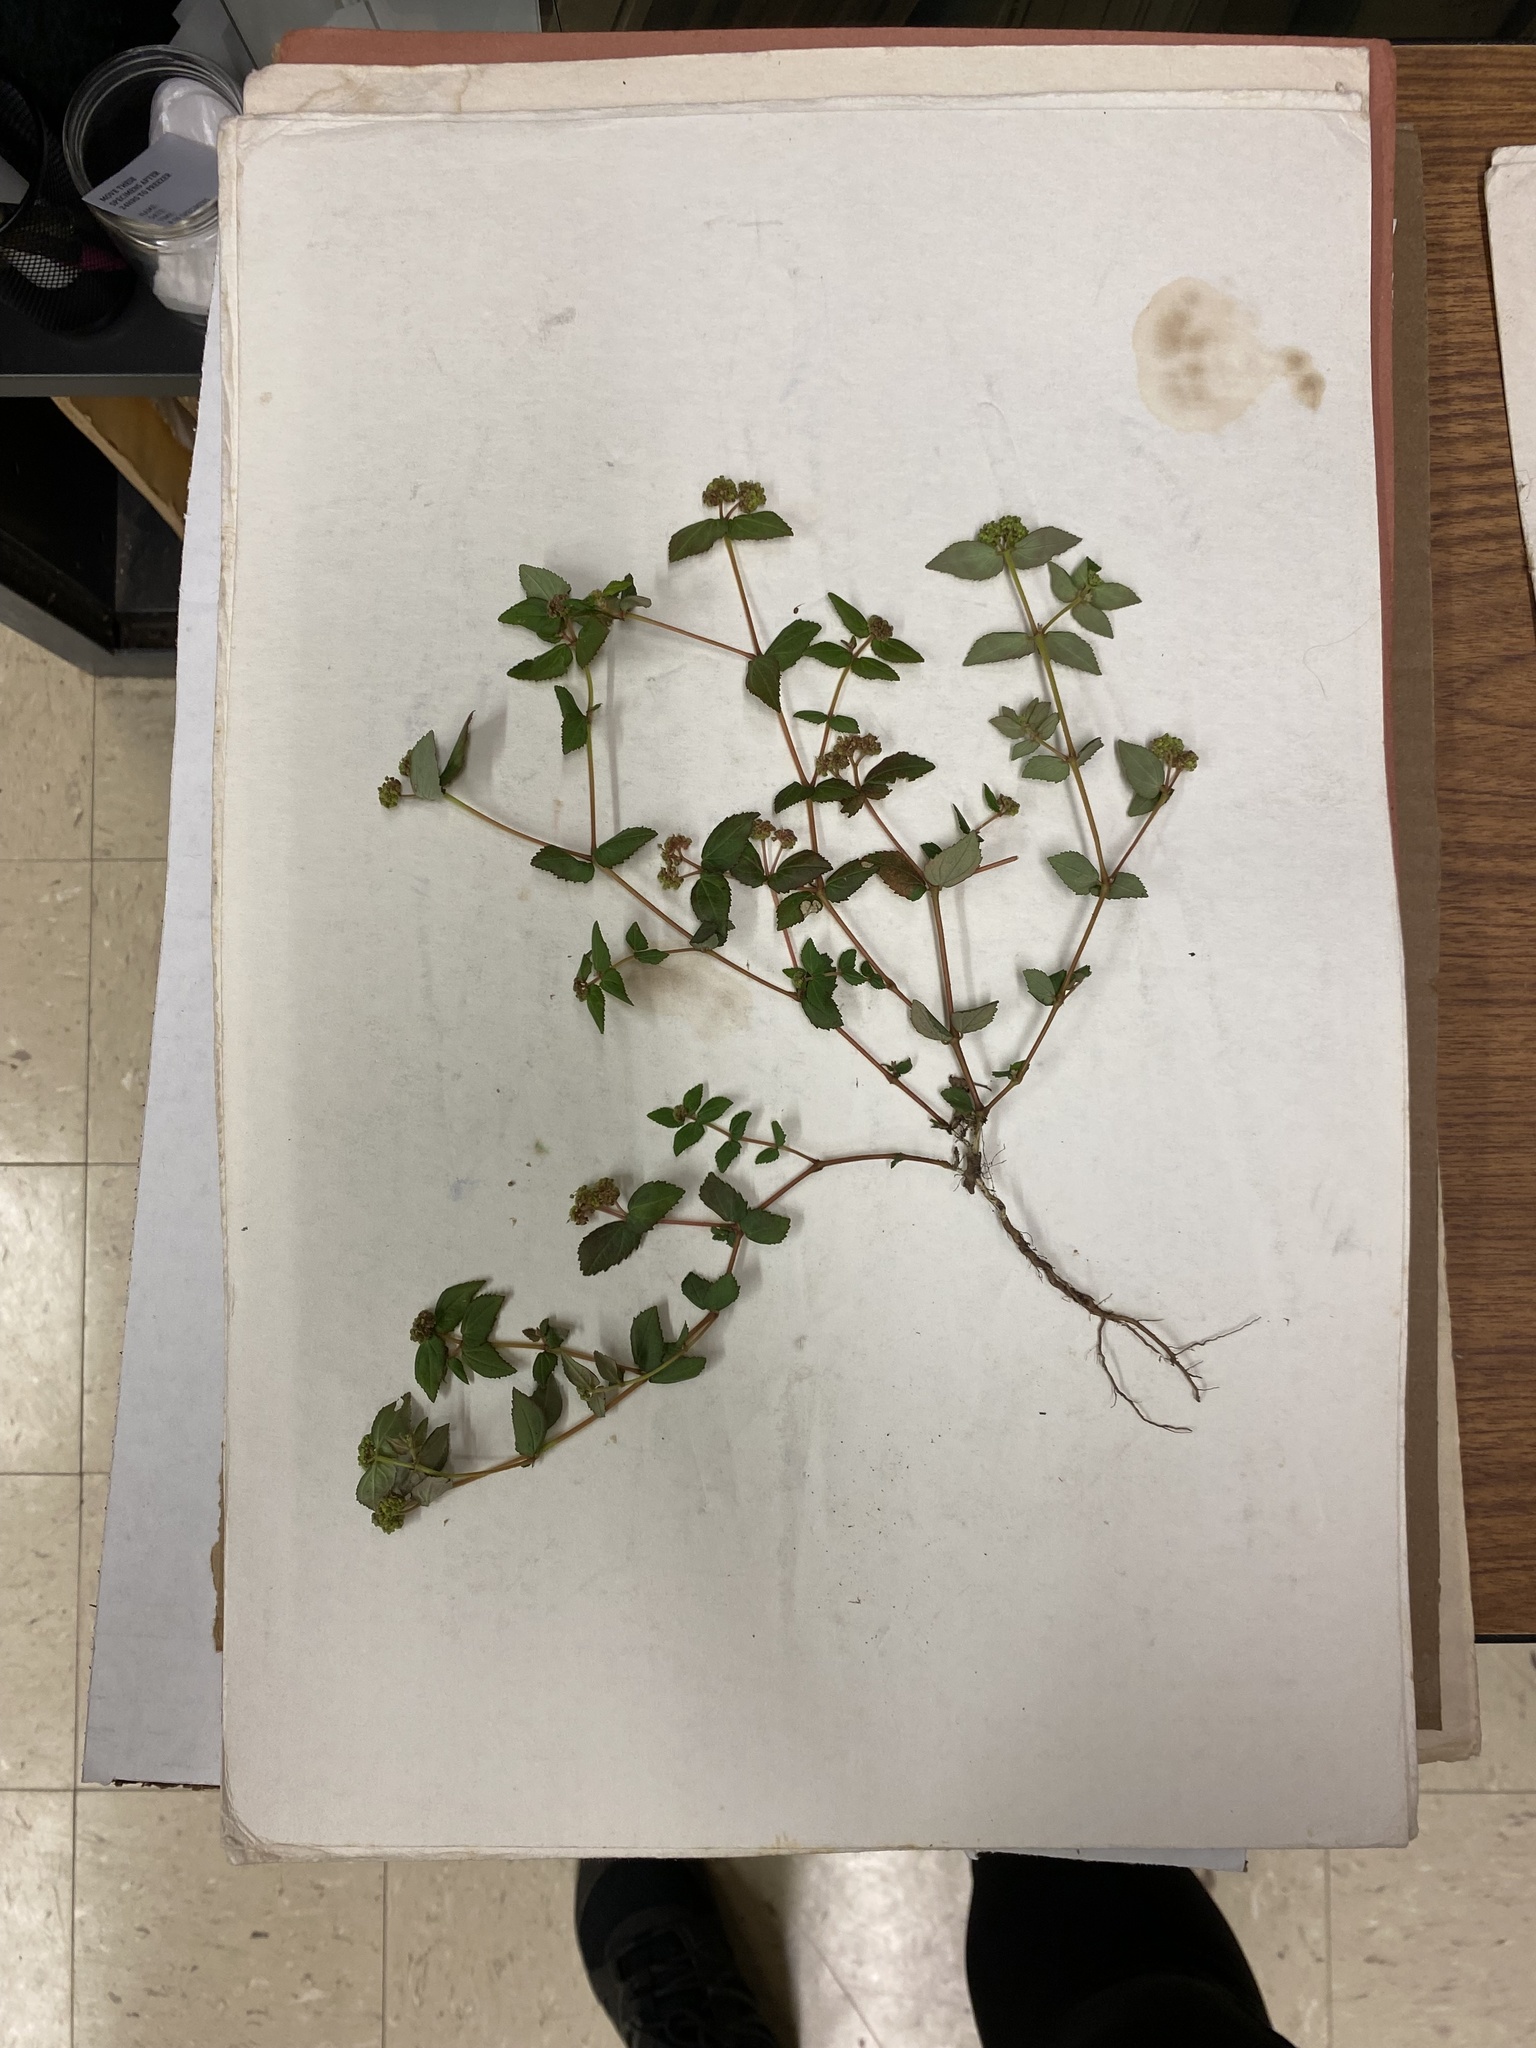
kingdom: Plantae
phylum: Tracheophyta
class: Magnoliopsida
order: Malpighiales
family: Euphorbiaceae
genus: Euphorbia
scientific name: Euphorbia ophthalmica
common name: Florida hammock sandmat
